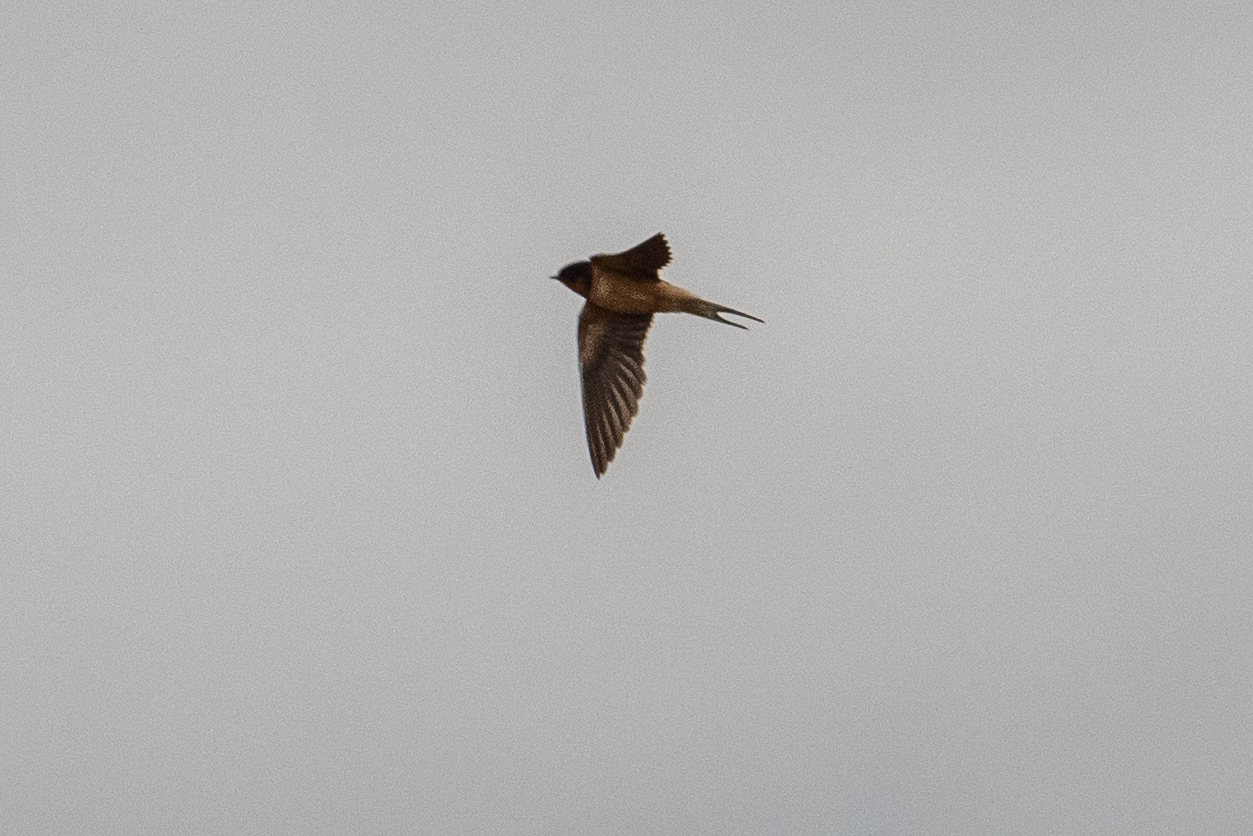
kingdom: Animalia
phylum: Chordata
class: Aves
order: Passeriformes
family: Hirundinidae
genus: Hirundo
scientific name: Hirundo rustica
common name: Barn swallow
